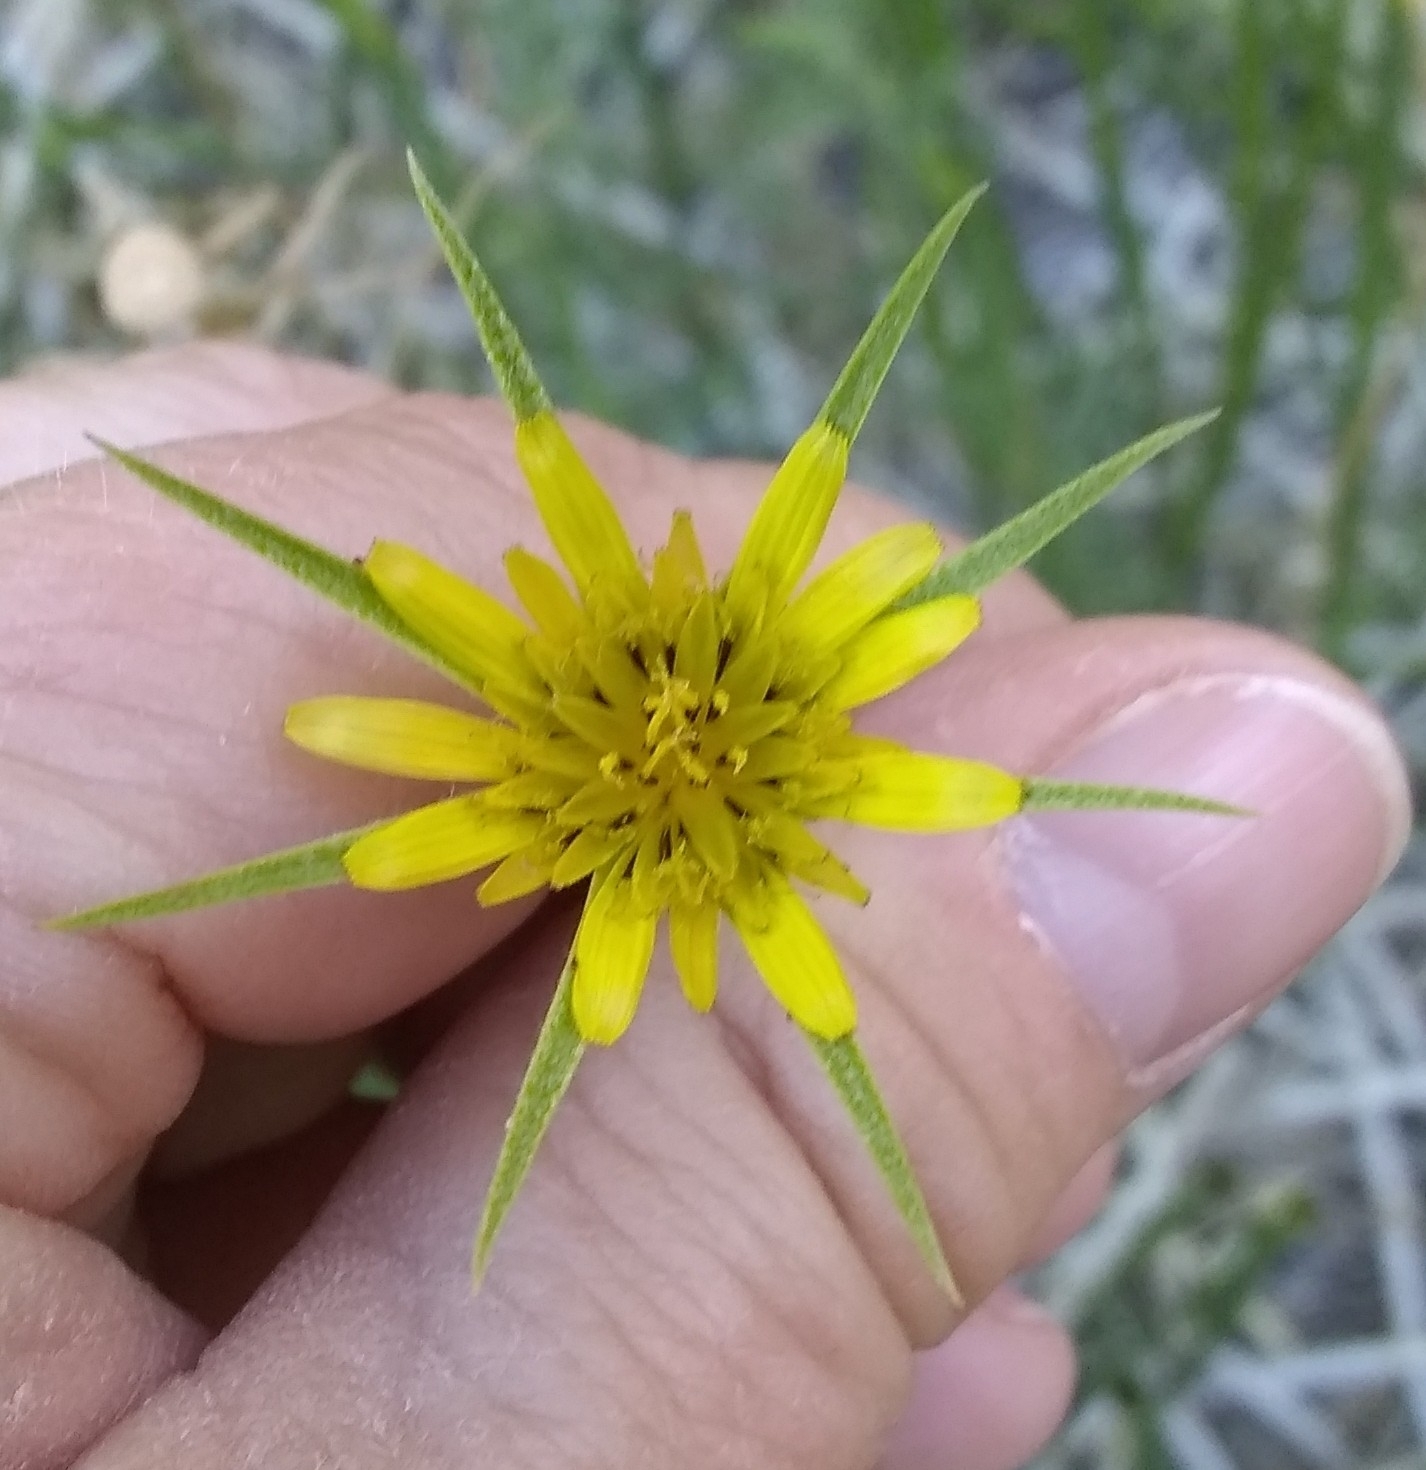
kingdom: Plantae
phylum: Tracheophyta
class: Magnoliopsida
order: Asterales
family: Asteraceae
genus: Tragopogon
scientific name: Tragopogon dubius
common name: Yellow salsify
